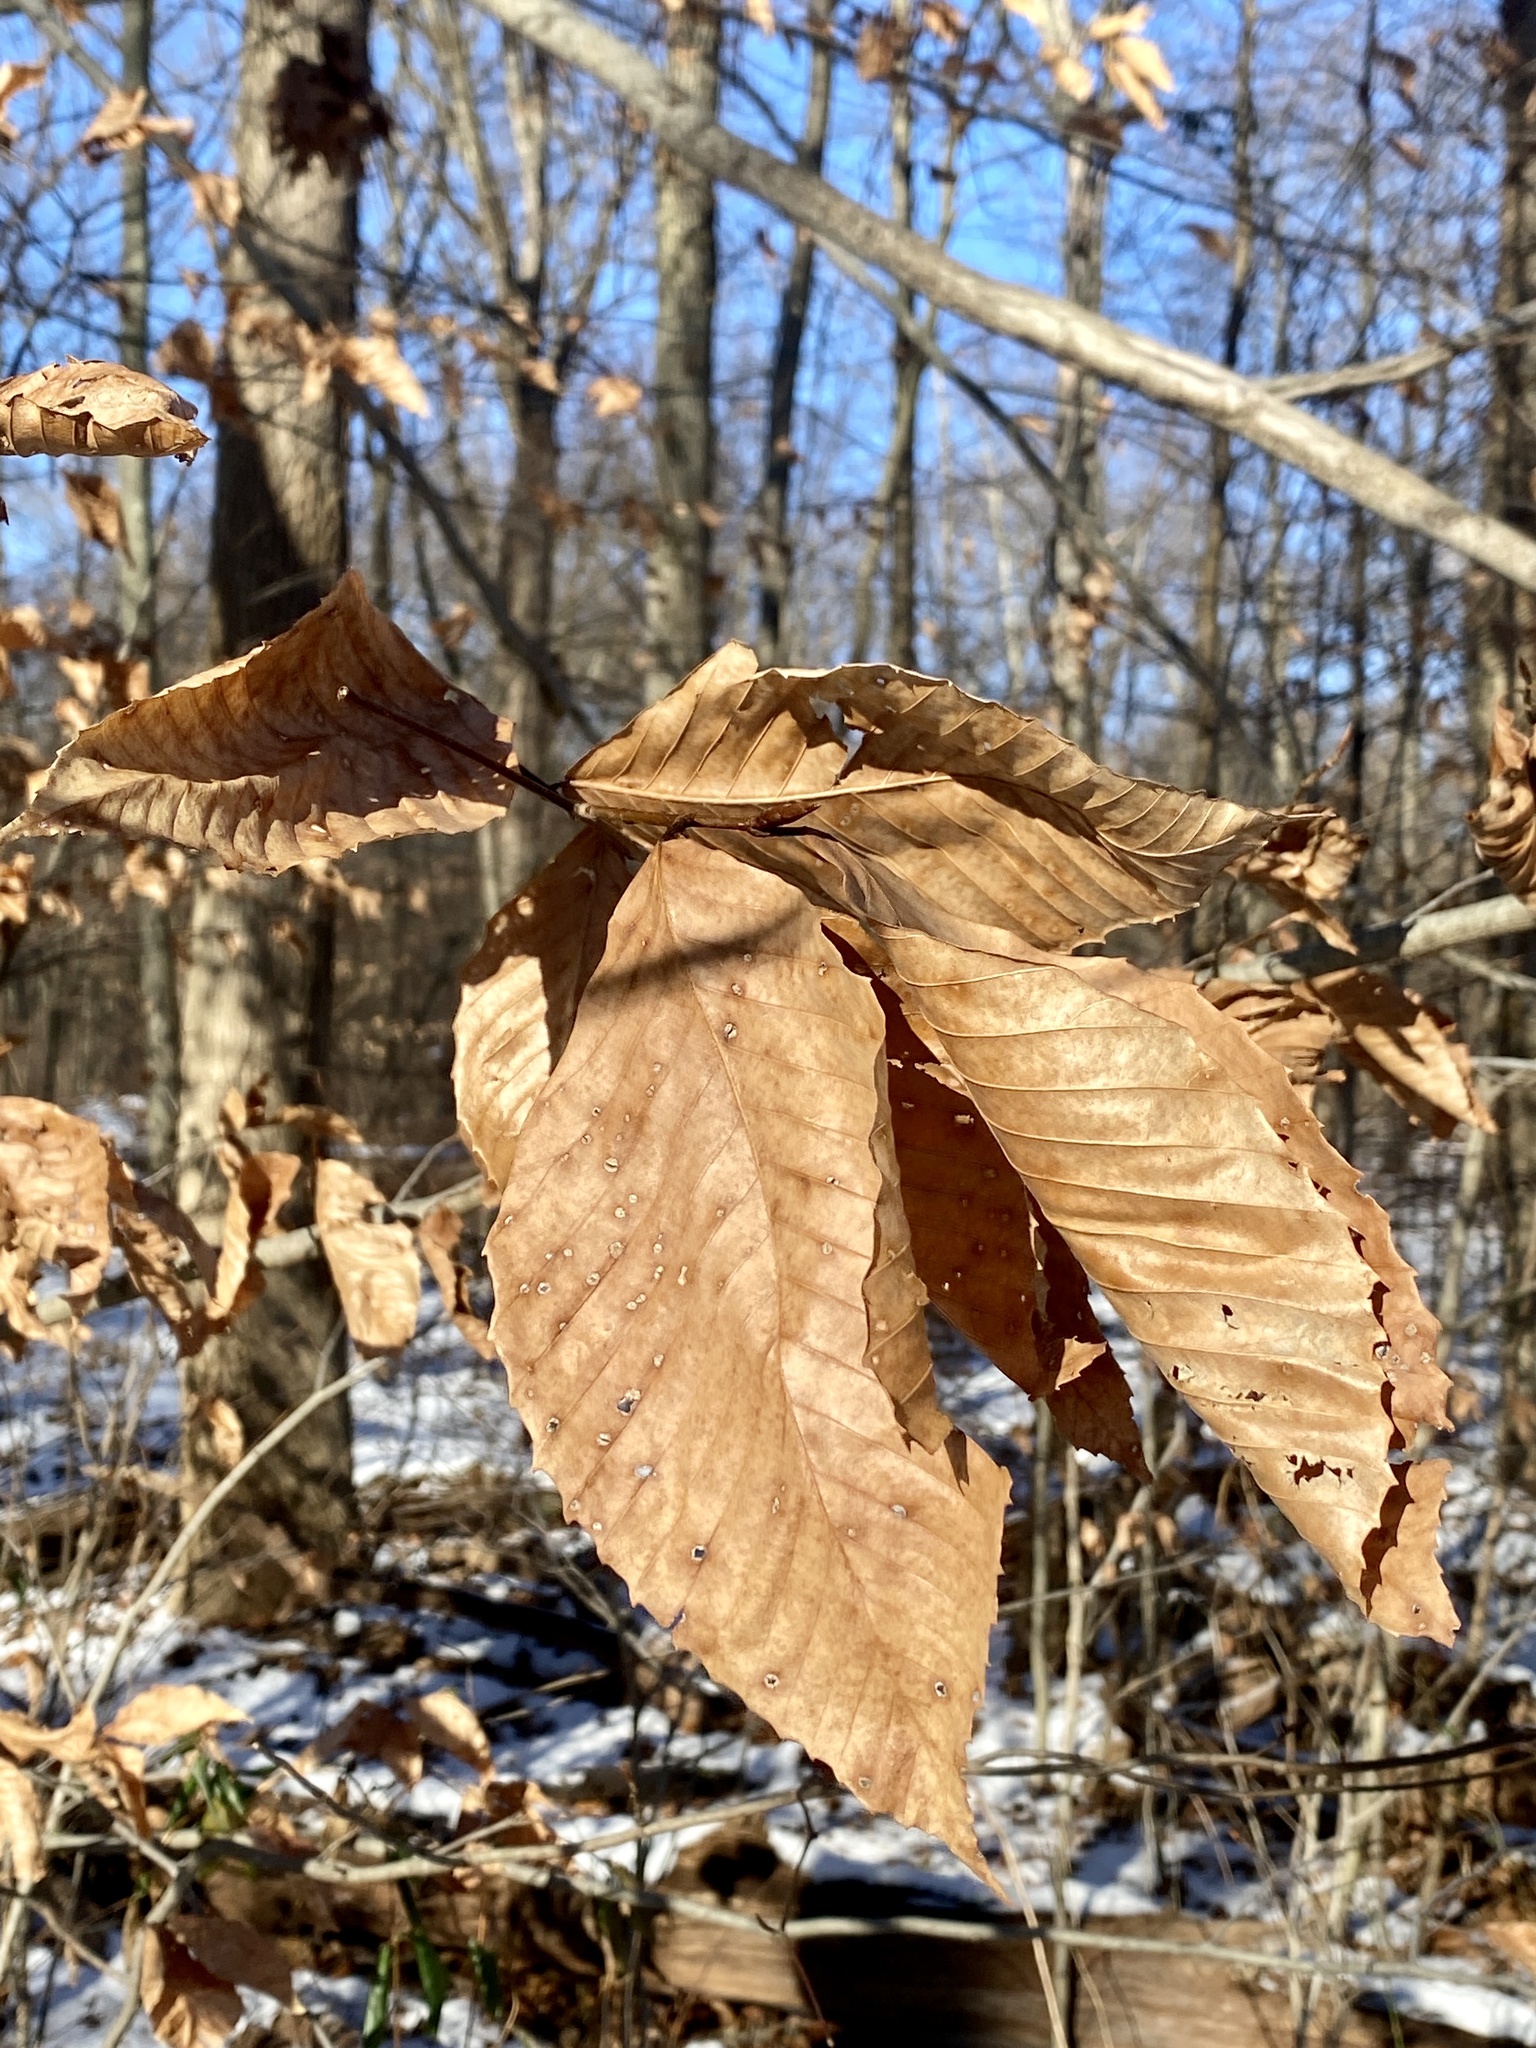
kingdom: Plantae
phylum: Tracheophyta
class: Magnoliopsida
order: Fagales
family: Fagaceae
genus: Fagus
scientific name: Fagus grandifolia
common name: American beech
